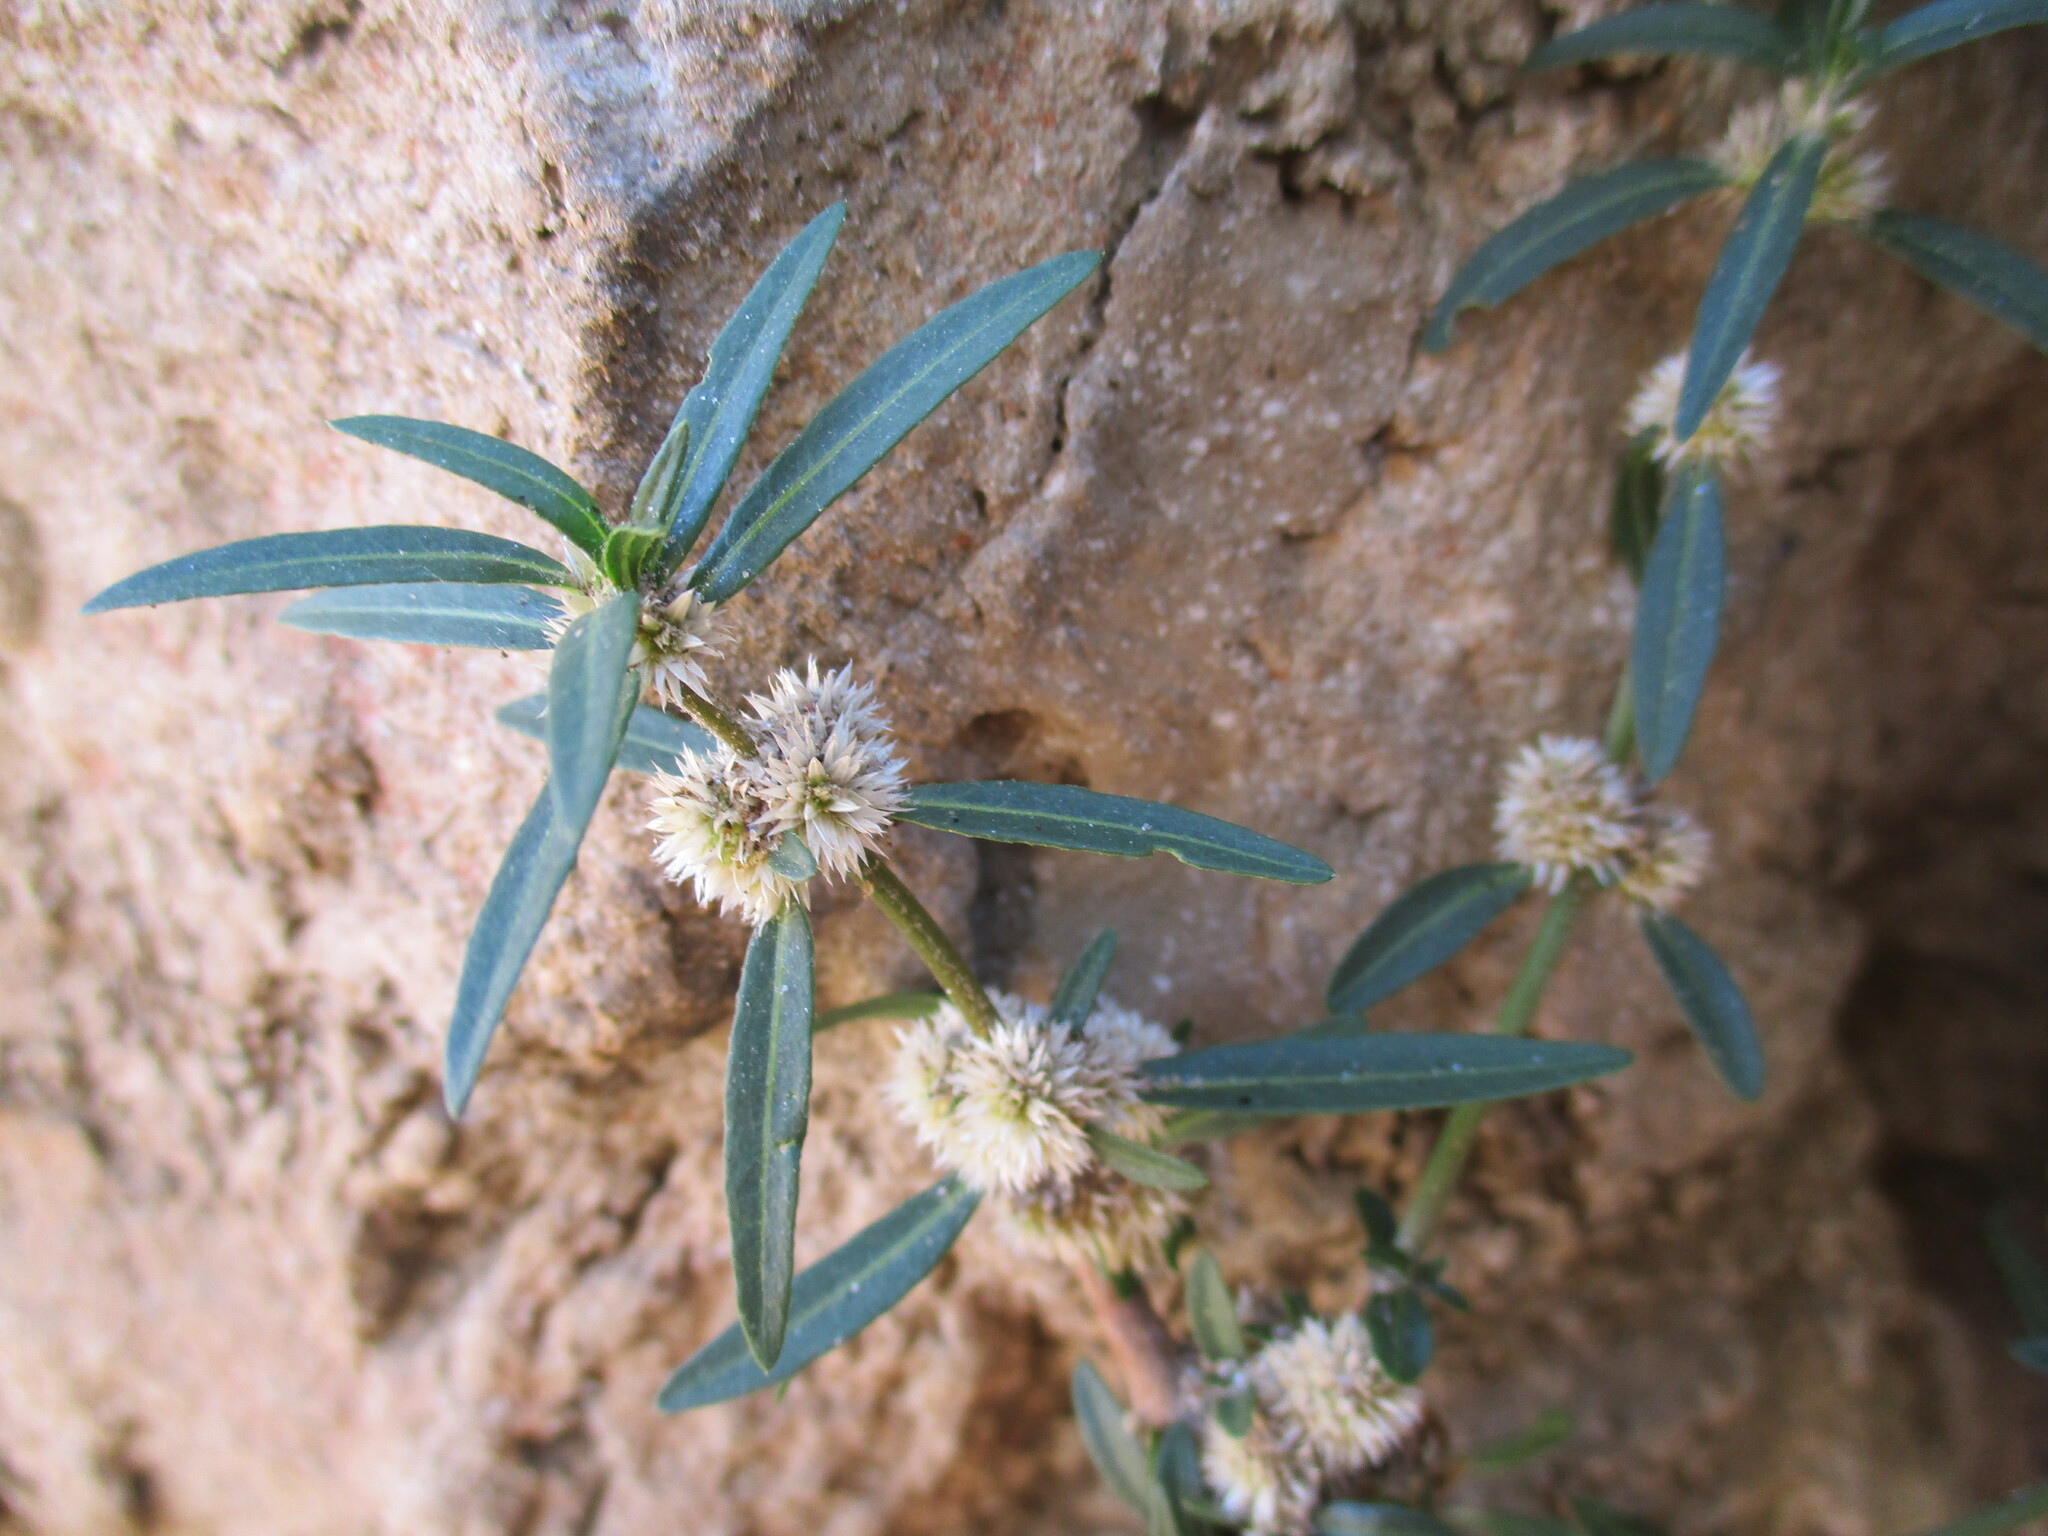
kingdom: Plantae
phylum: Tracheophyta
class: Magnoliopsida
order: Caryophyllales
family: Amaranthaceae
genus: Alternanthera
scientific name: Alternanthera sessilis
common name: Sessile joyweed
